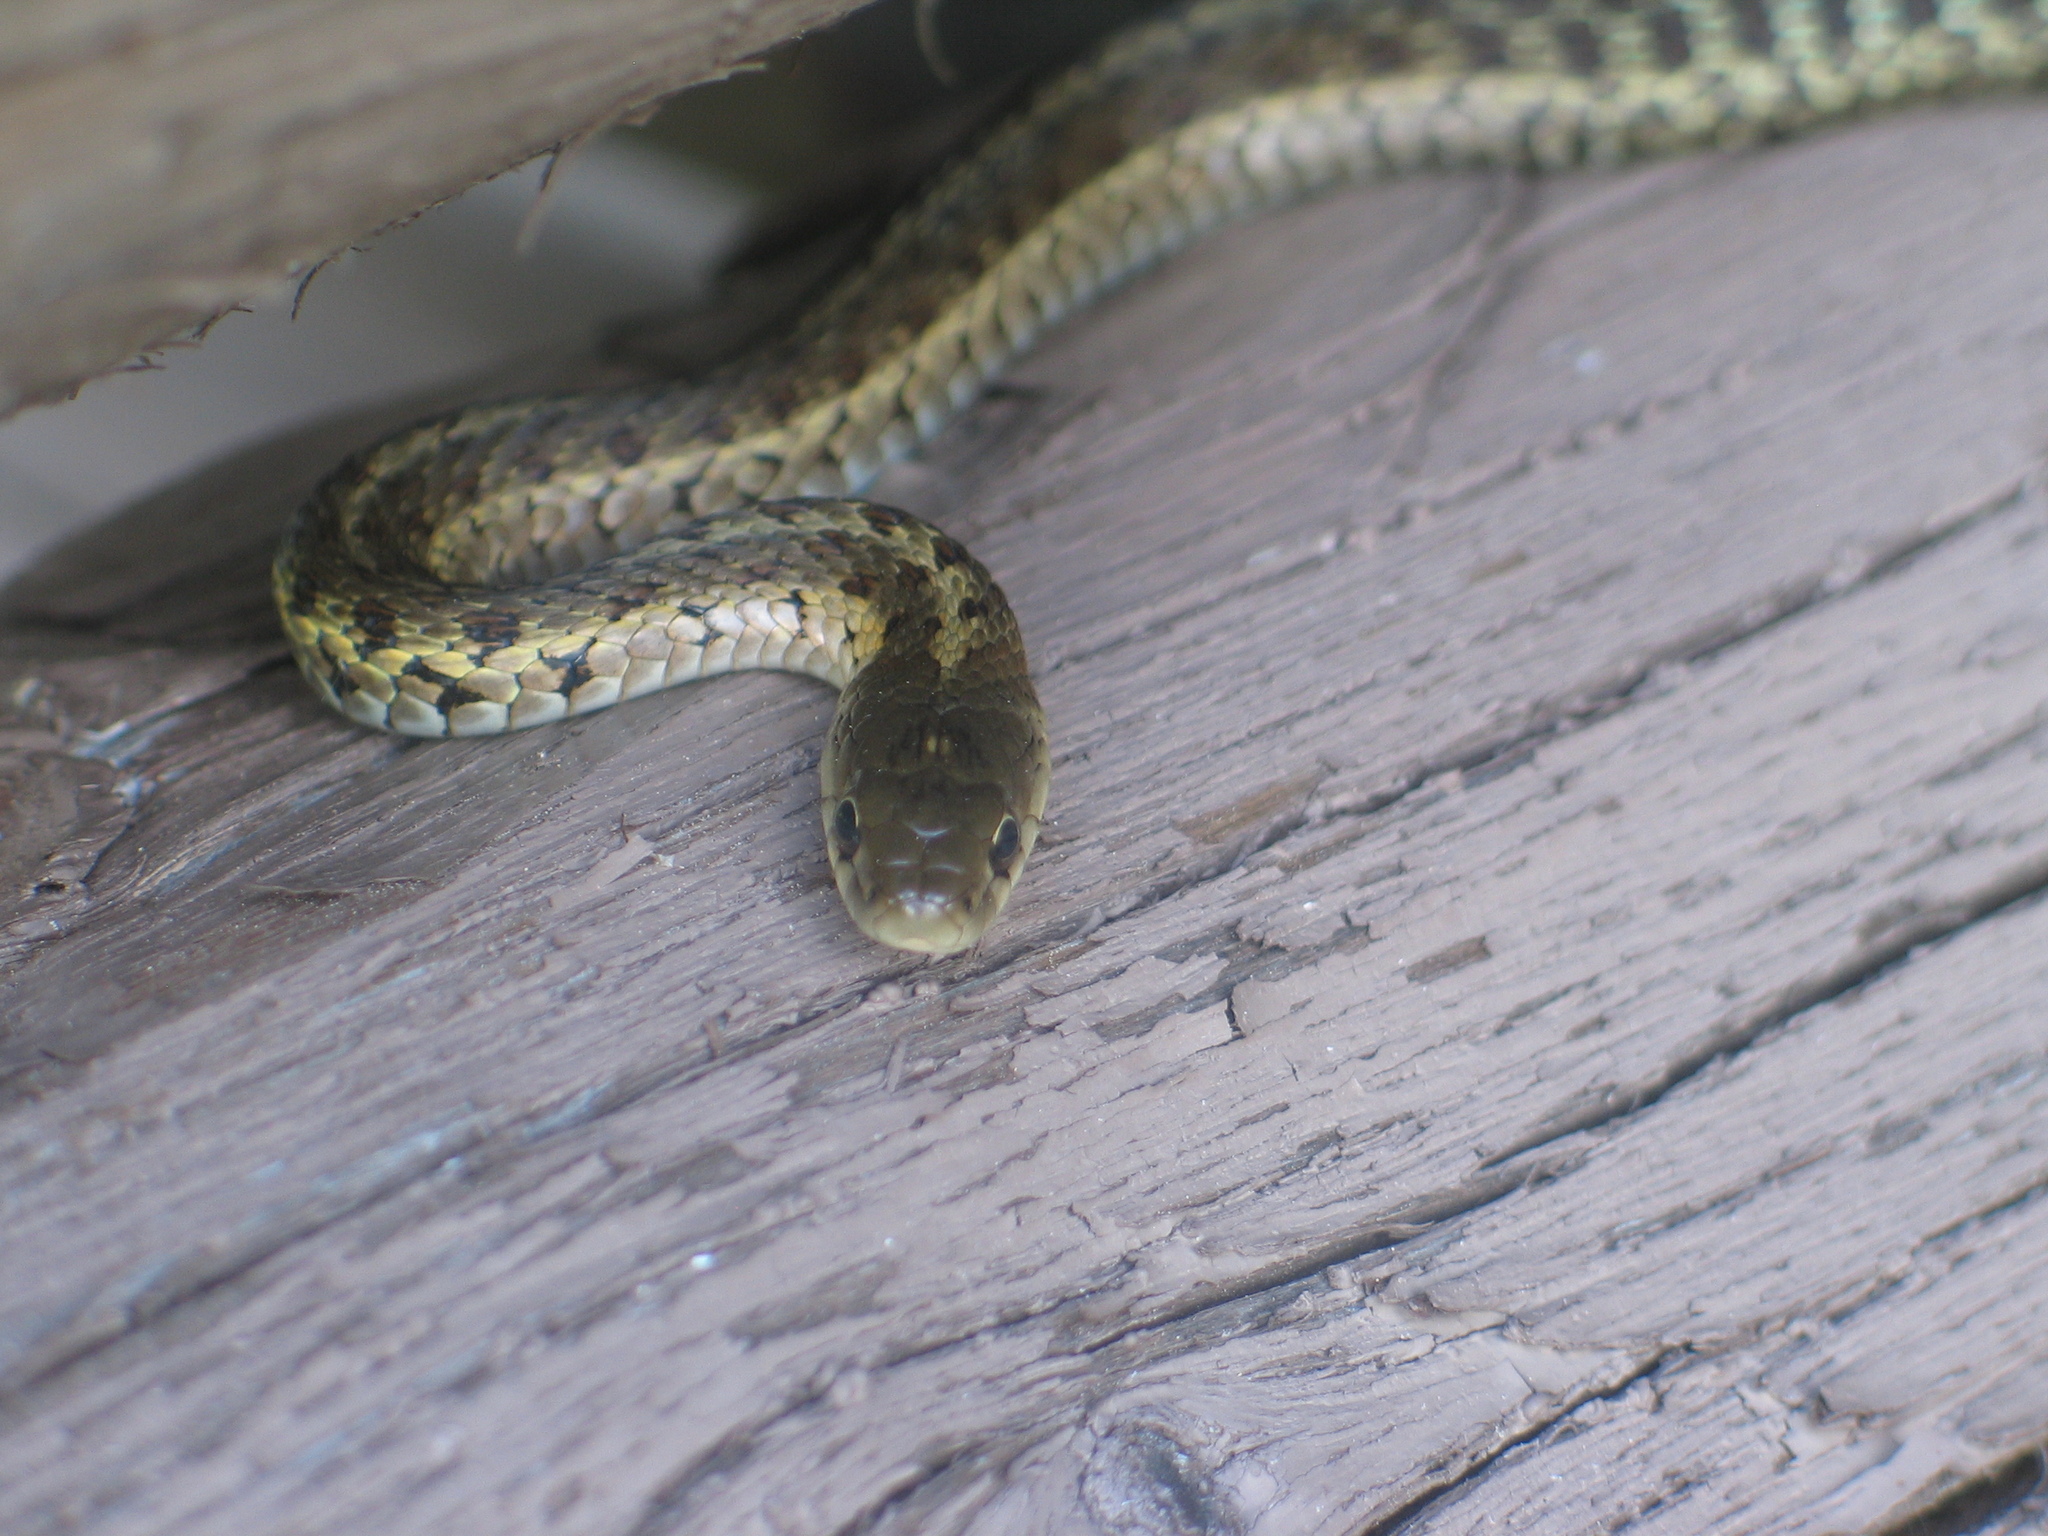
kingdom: Animalia
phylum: Chordata
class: Squamata
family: Colubridae
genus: Thamnophis
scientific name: Thamnophis sirtalis
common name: Common garter snake
